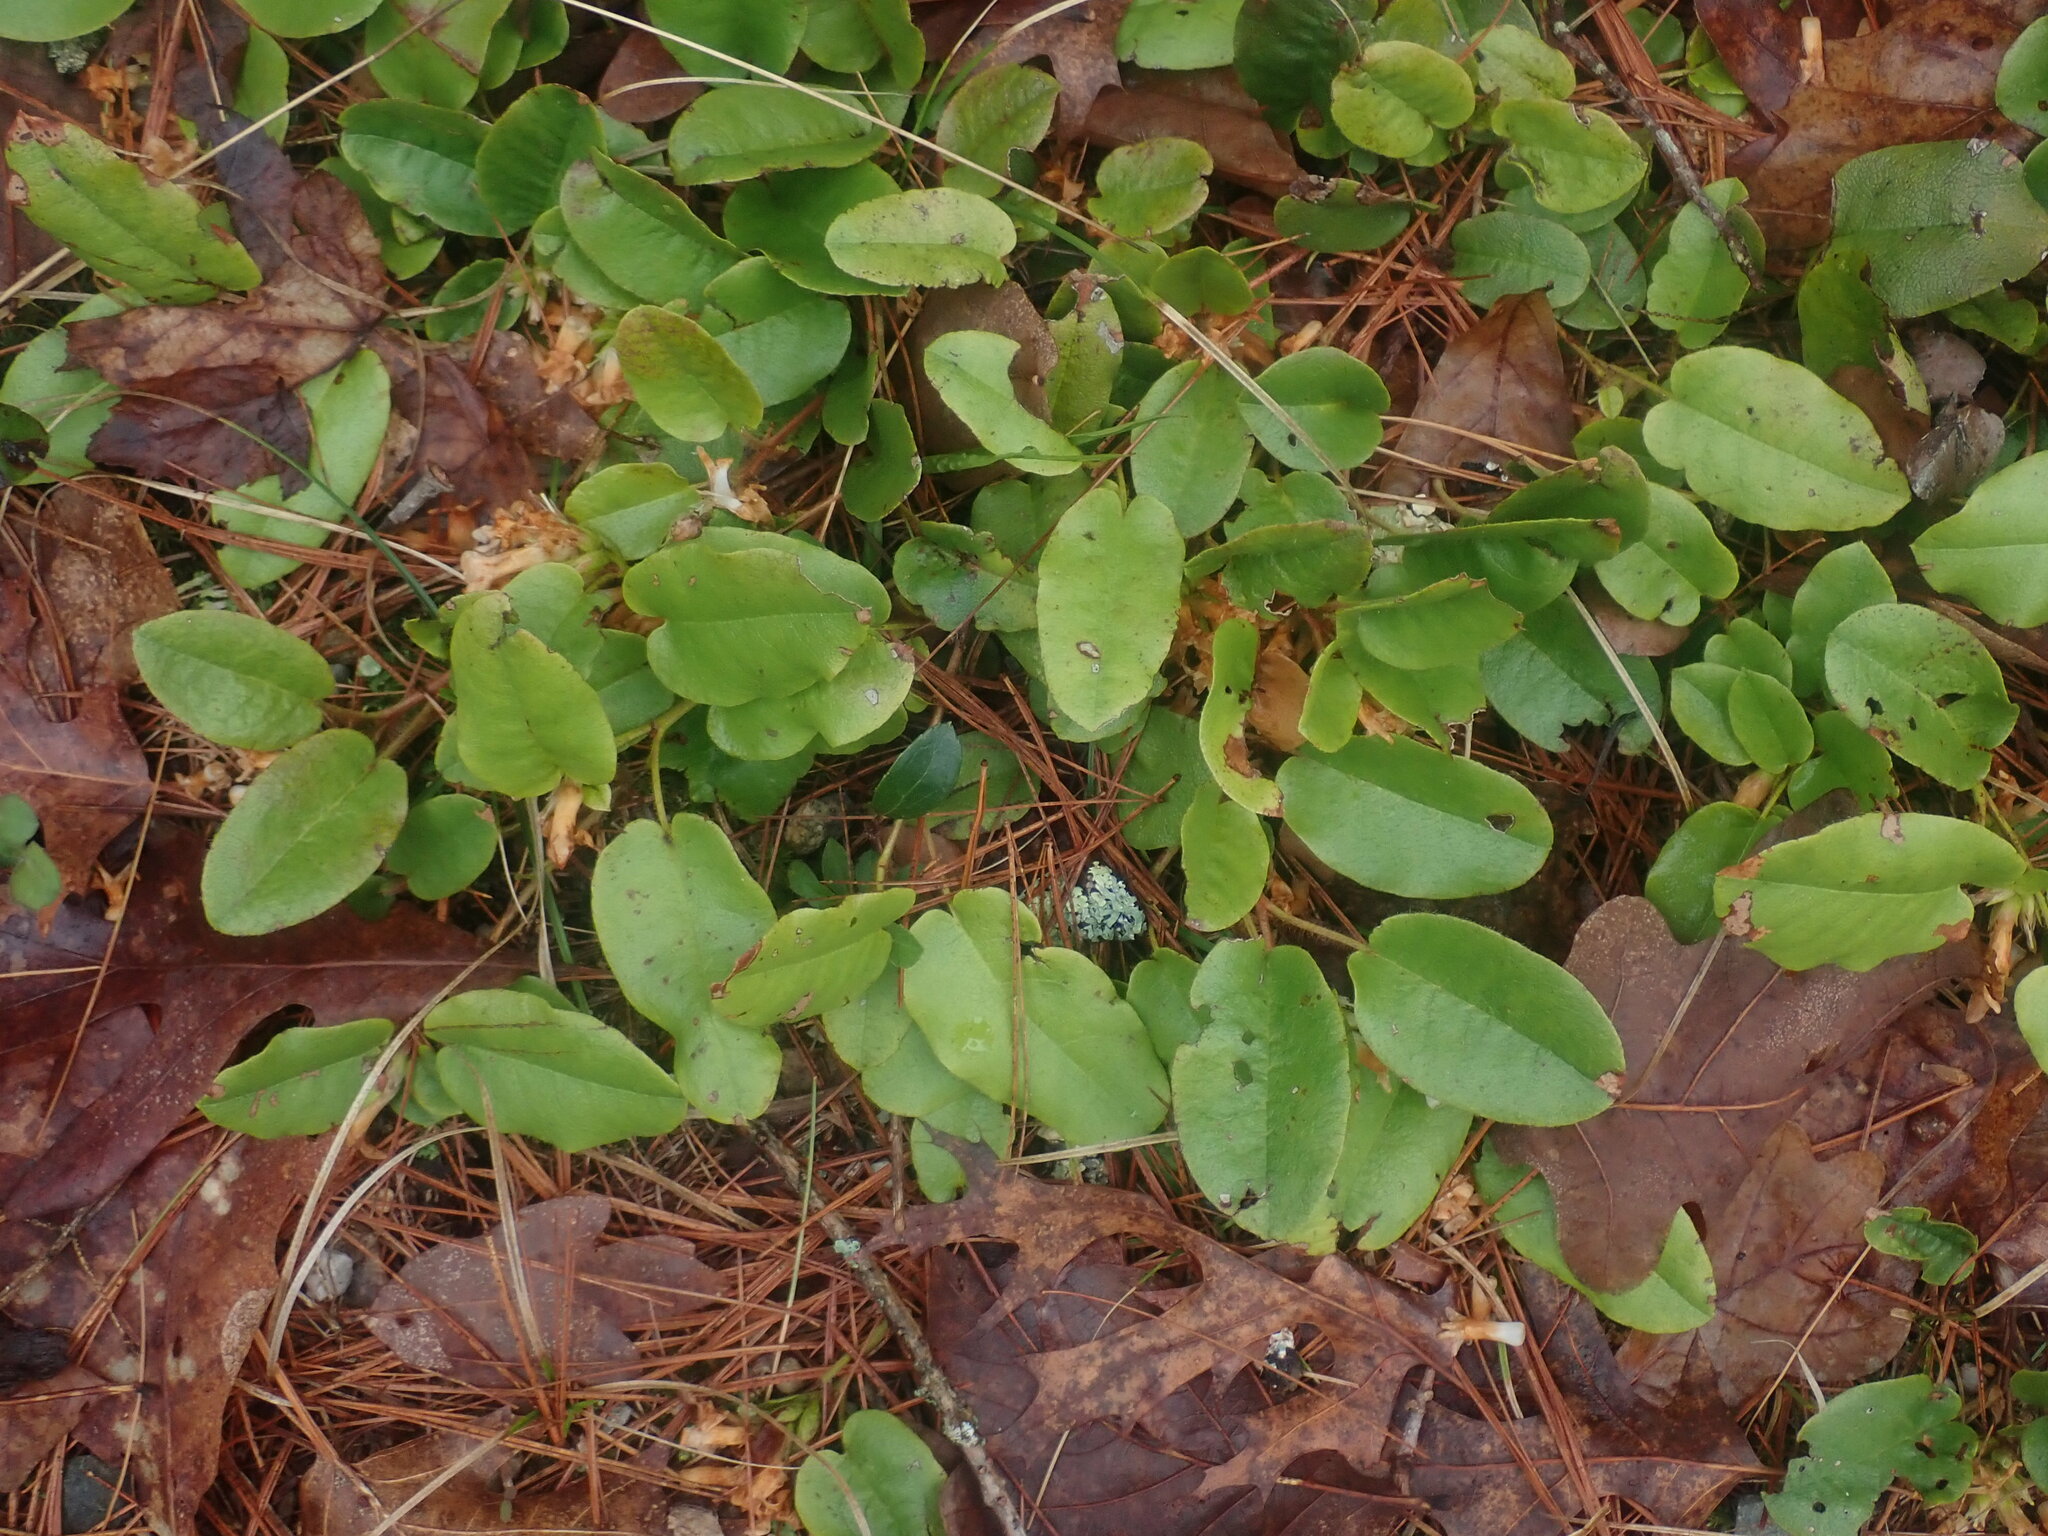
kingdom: Plantae
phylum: Tracheophyta
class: Magnoliopsida
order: Ericales
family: Ericaceae
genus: Epigaea
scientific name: Epigaea repens
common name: Gravelroot
